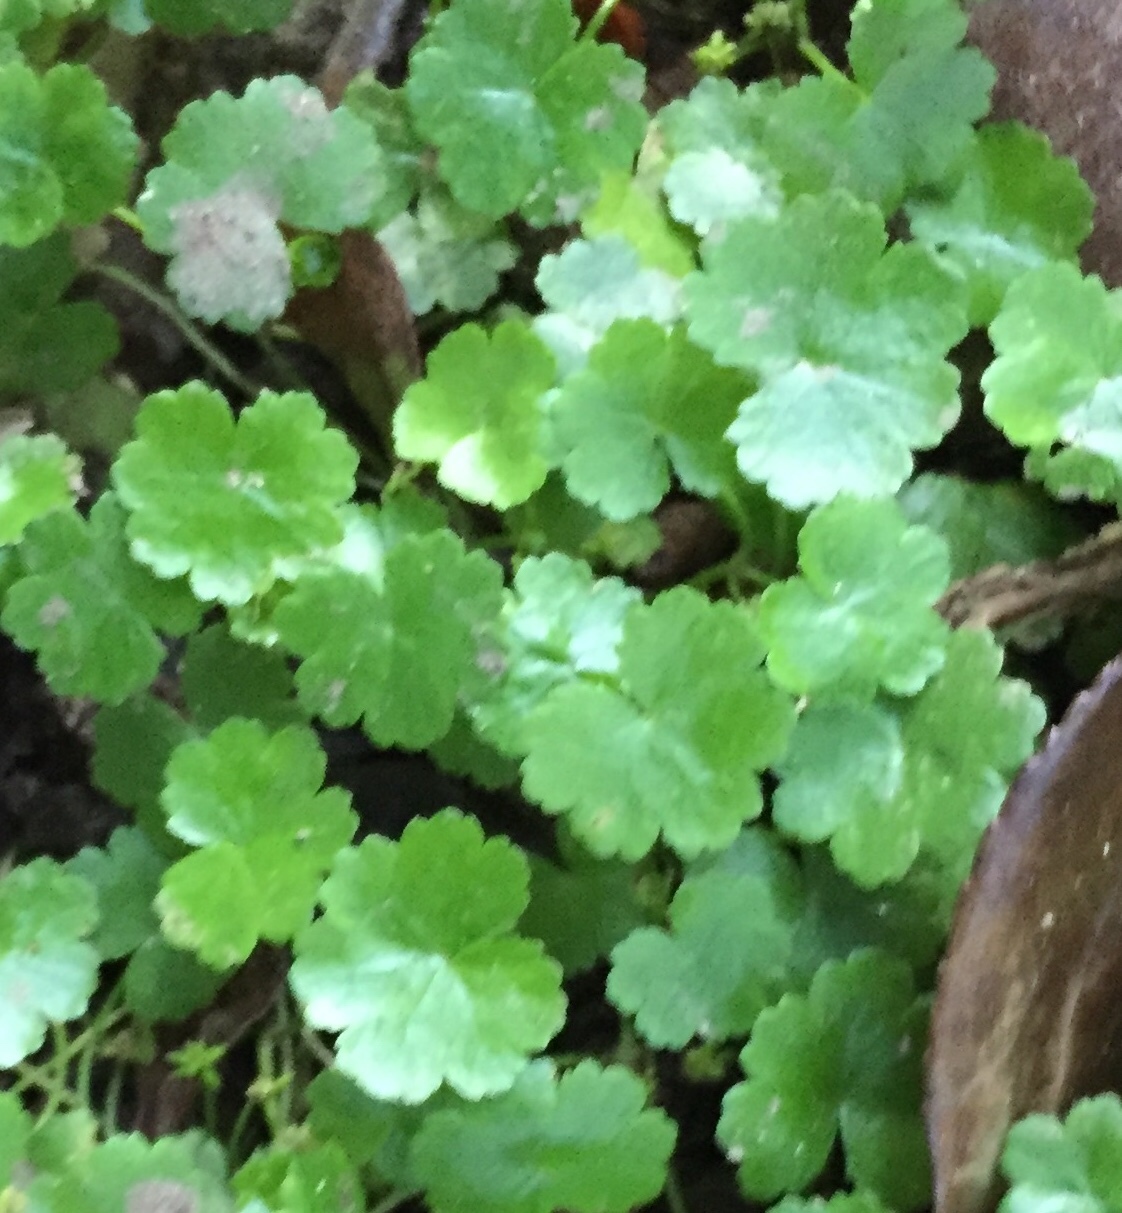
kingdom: Plantae
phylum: Tracheophyta
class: Magnoliopsida
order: Apiales
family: Araliaceae
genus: Hydrocotyle
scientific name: Hydrocotyle sibthorpioides
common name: Lawn marshpennywort
